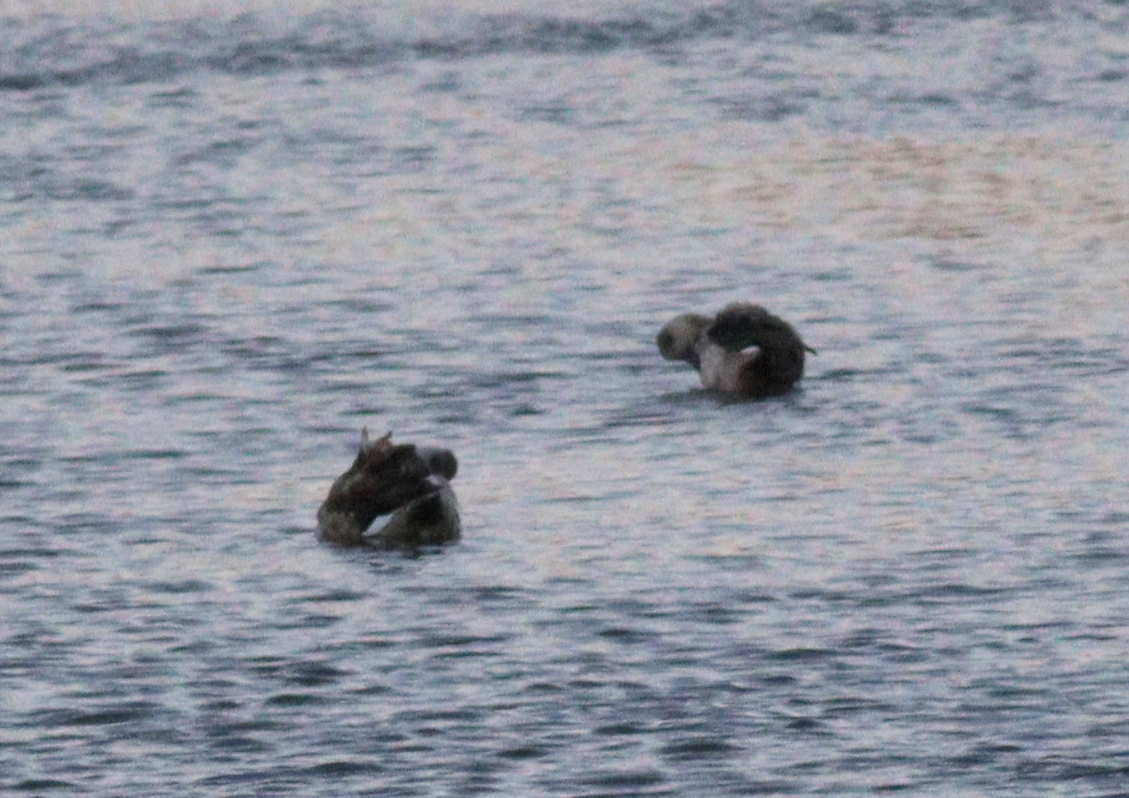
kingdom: Animalia
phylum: Chordata
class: Aves
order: Anseriformes
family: Anatidae
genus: Lophonetta
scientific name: Lophonetta specularioides
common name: Crested duck
